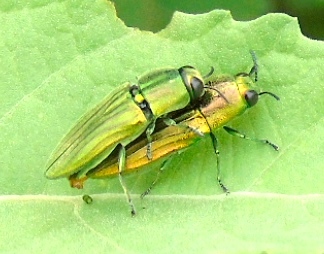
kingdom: Animalia
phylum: Arthropoda
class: Insecta
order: Coleoptera
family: Buprestidae
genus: Agaeocera
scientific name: Agaeocera scintillans
